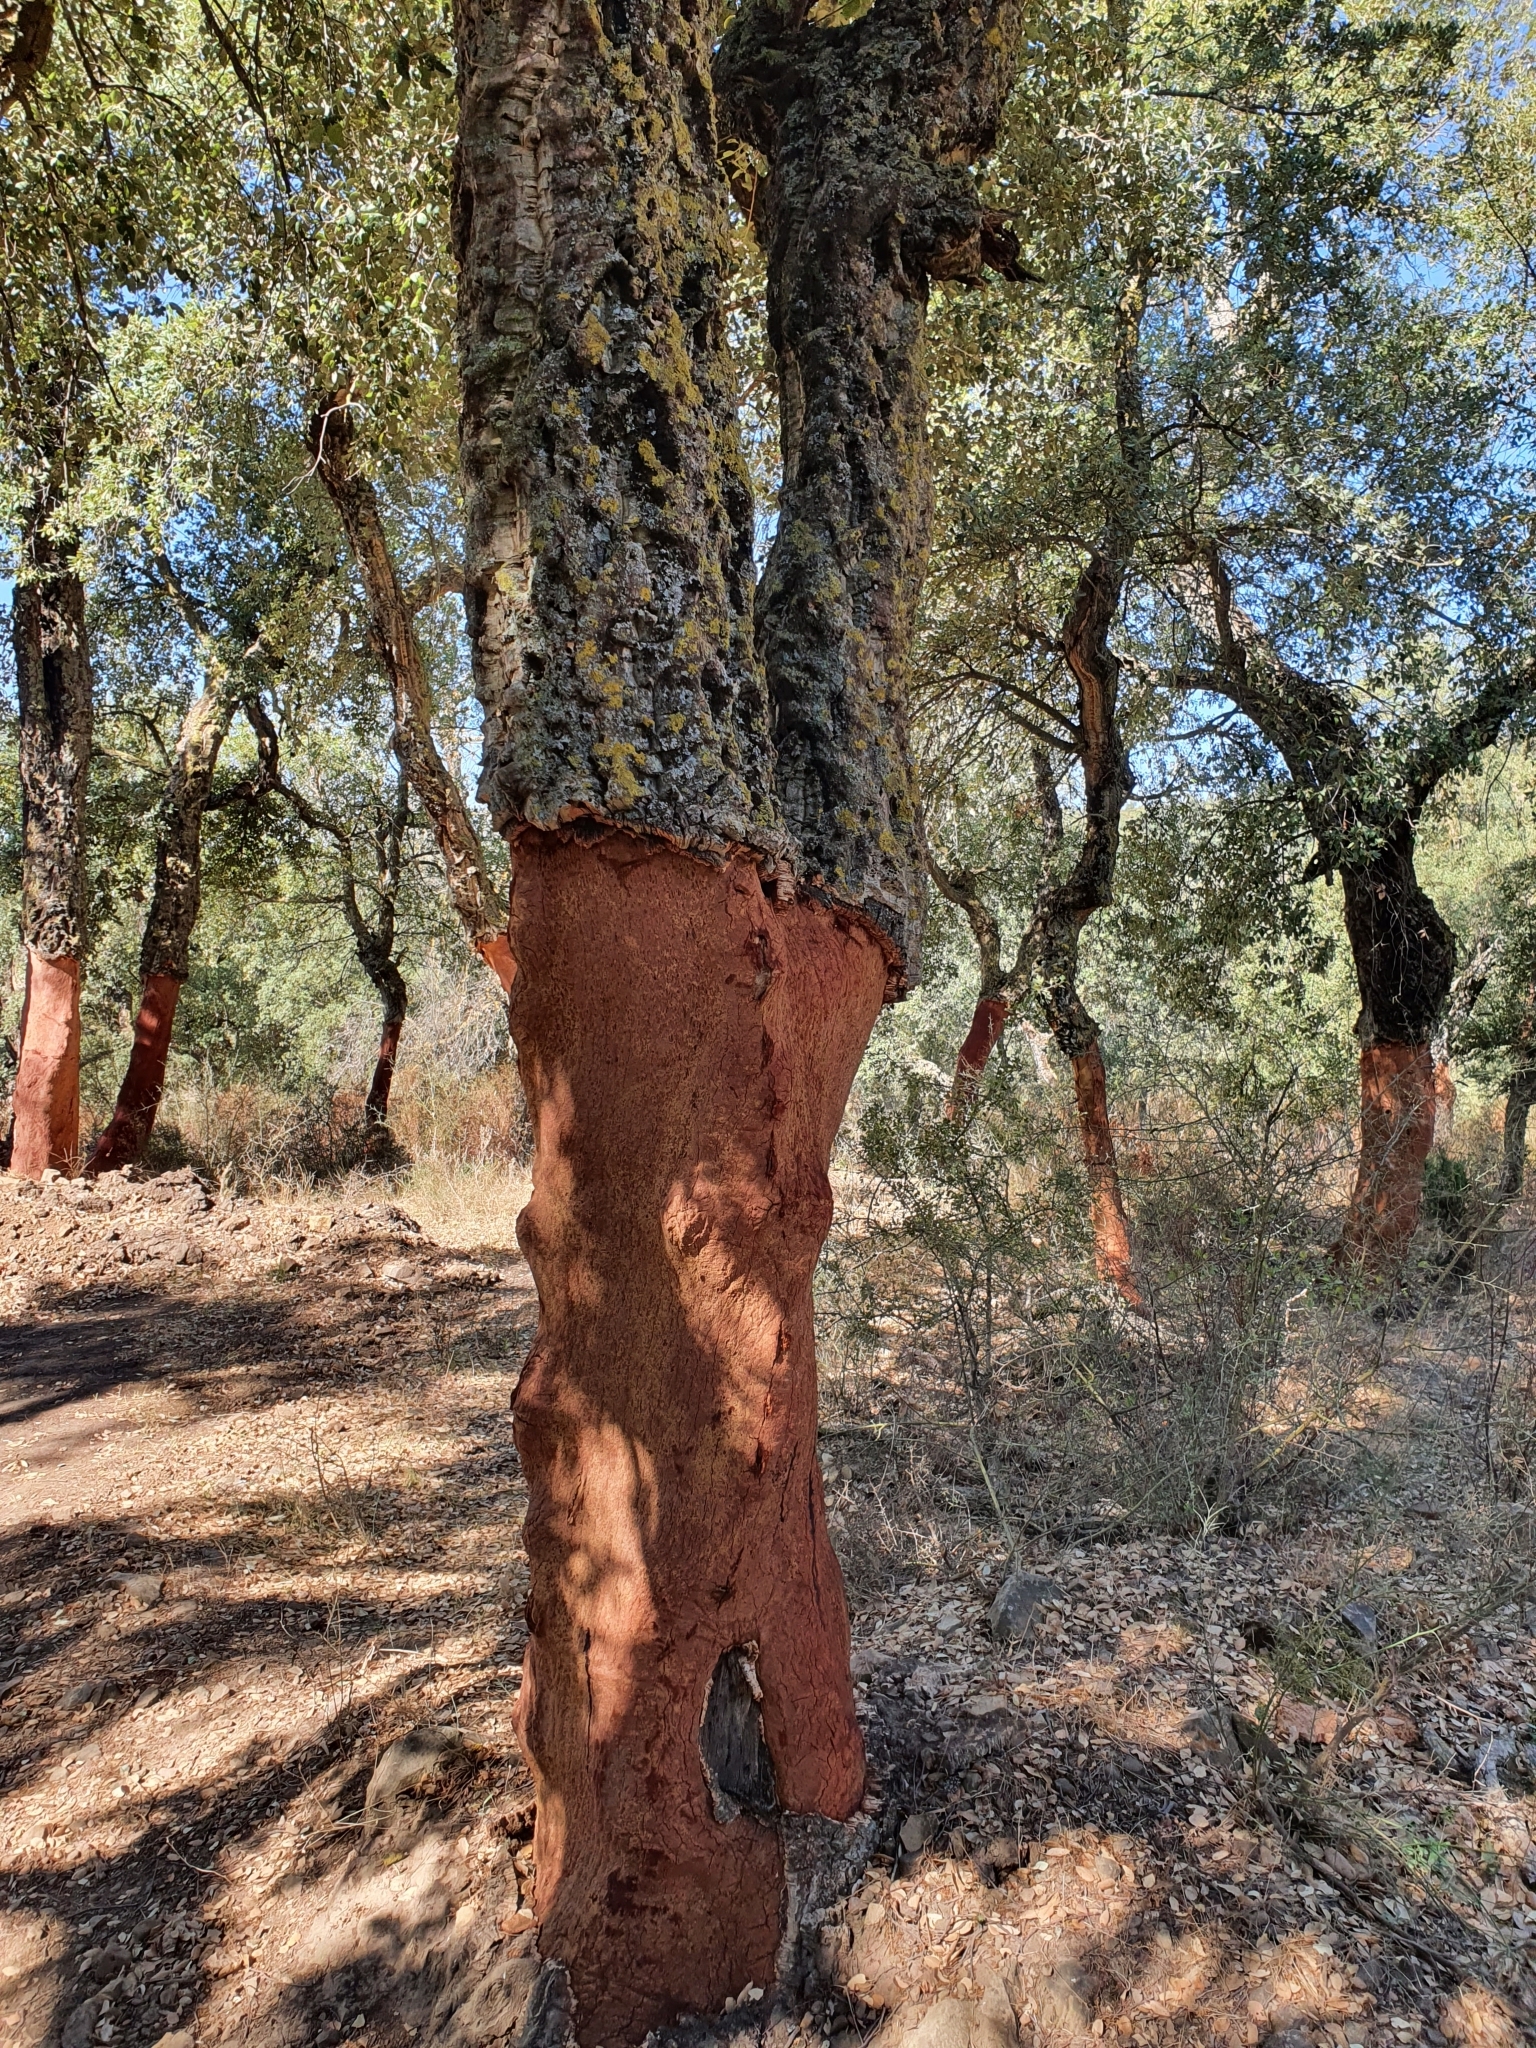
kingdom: Plantae
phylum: Tracheophyta
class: Magnoliopsida
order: Fagales
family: Fagaceae
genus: Quercus
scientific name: Quercus suber
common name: Cork oak
